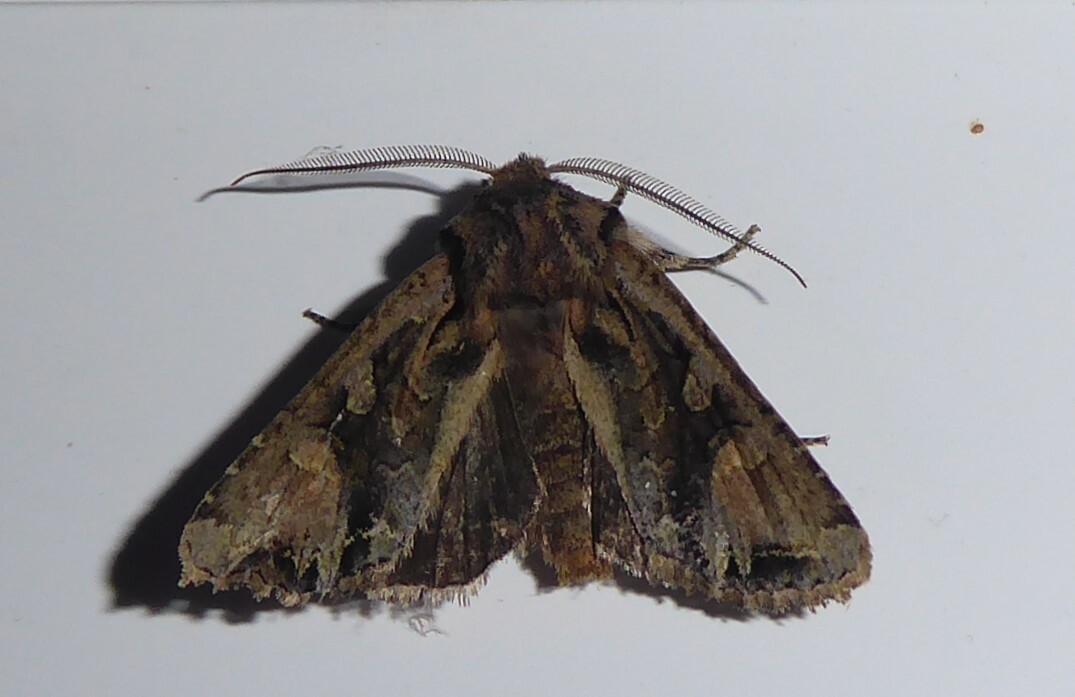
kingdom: Animalia
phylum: Arthropoda
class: Insecta
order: Lepidoptera
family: Noctuidae
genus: Ichneutica
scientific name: Ichneutica
